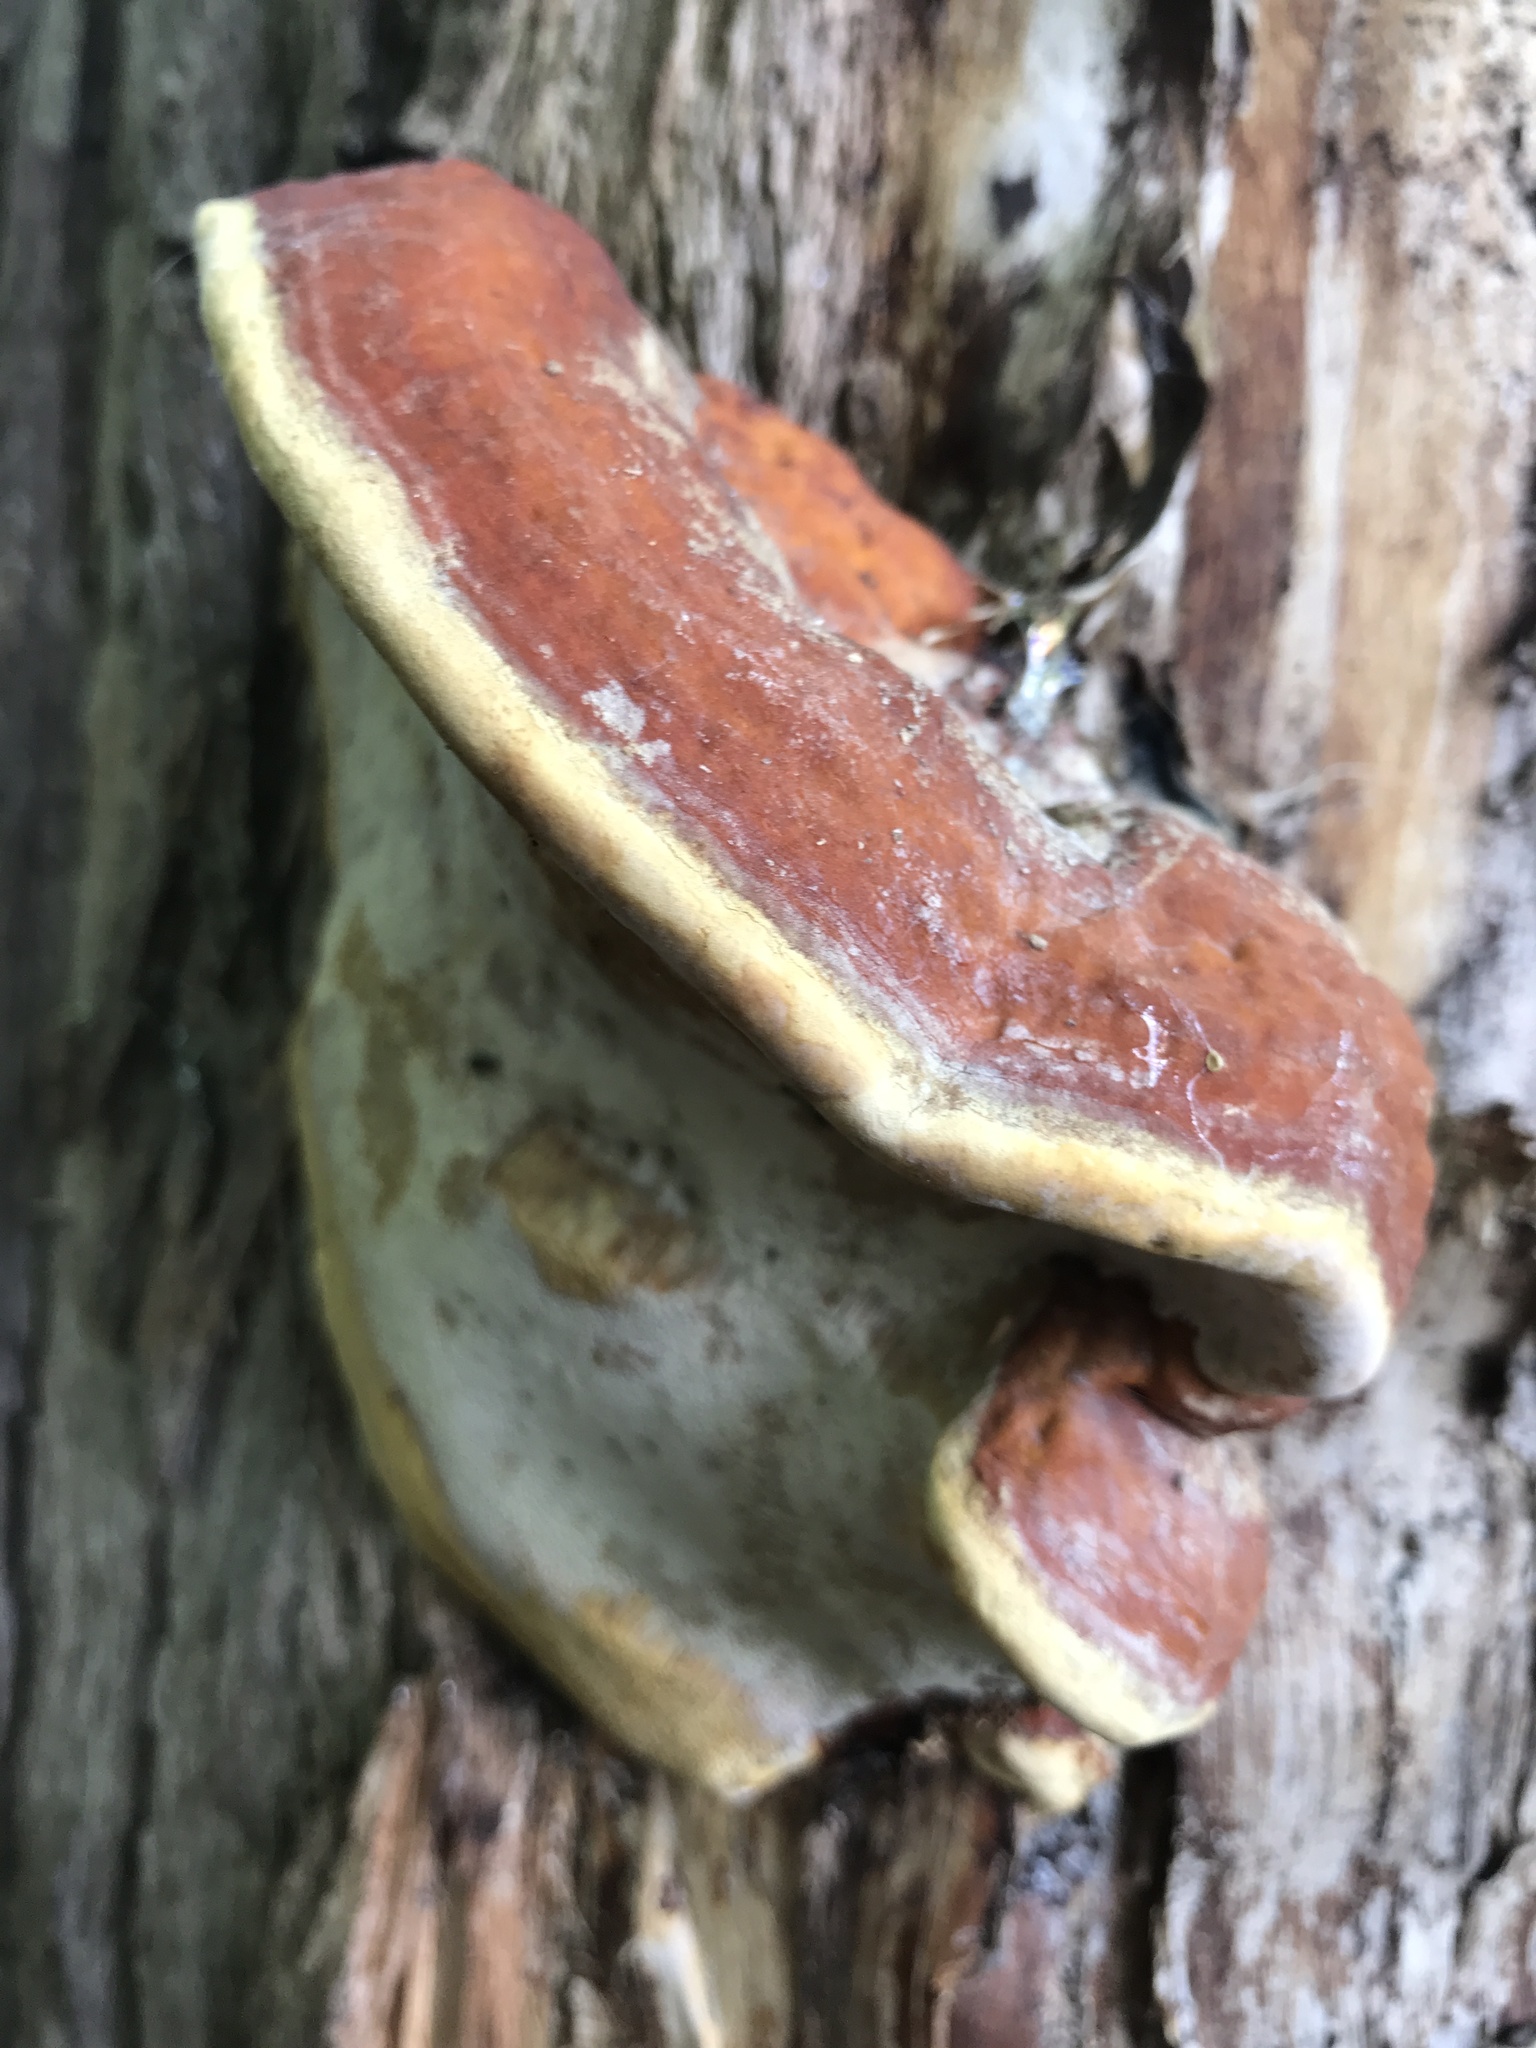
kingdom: Fungi
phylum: Basidiomycota
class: Agaricomycetes
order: Polyporales
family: Fomitopsidaceae
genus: Fomitopsis
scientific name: Fomitopsis pinicola
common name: Red-belted bracket
